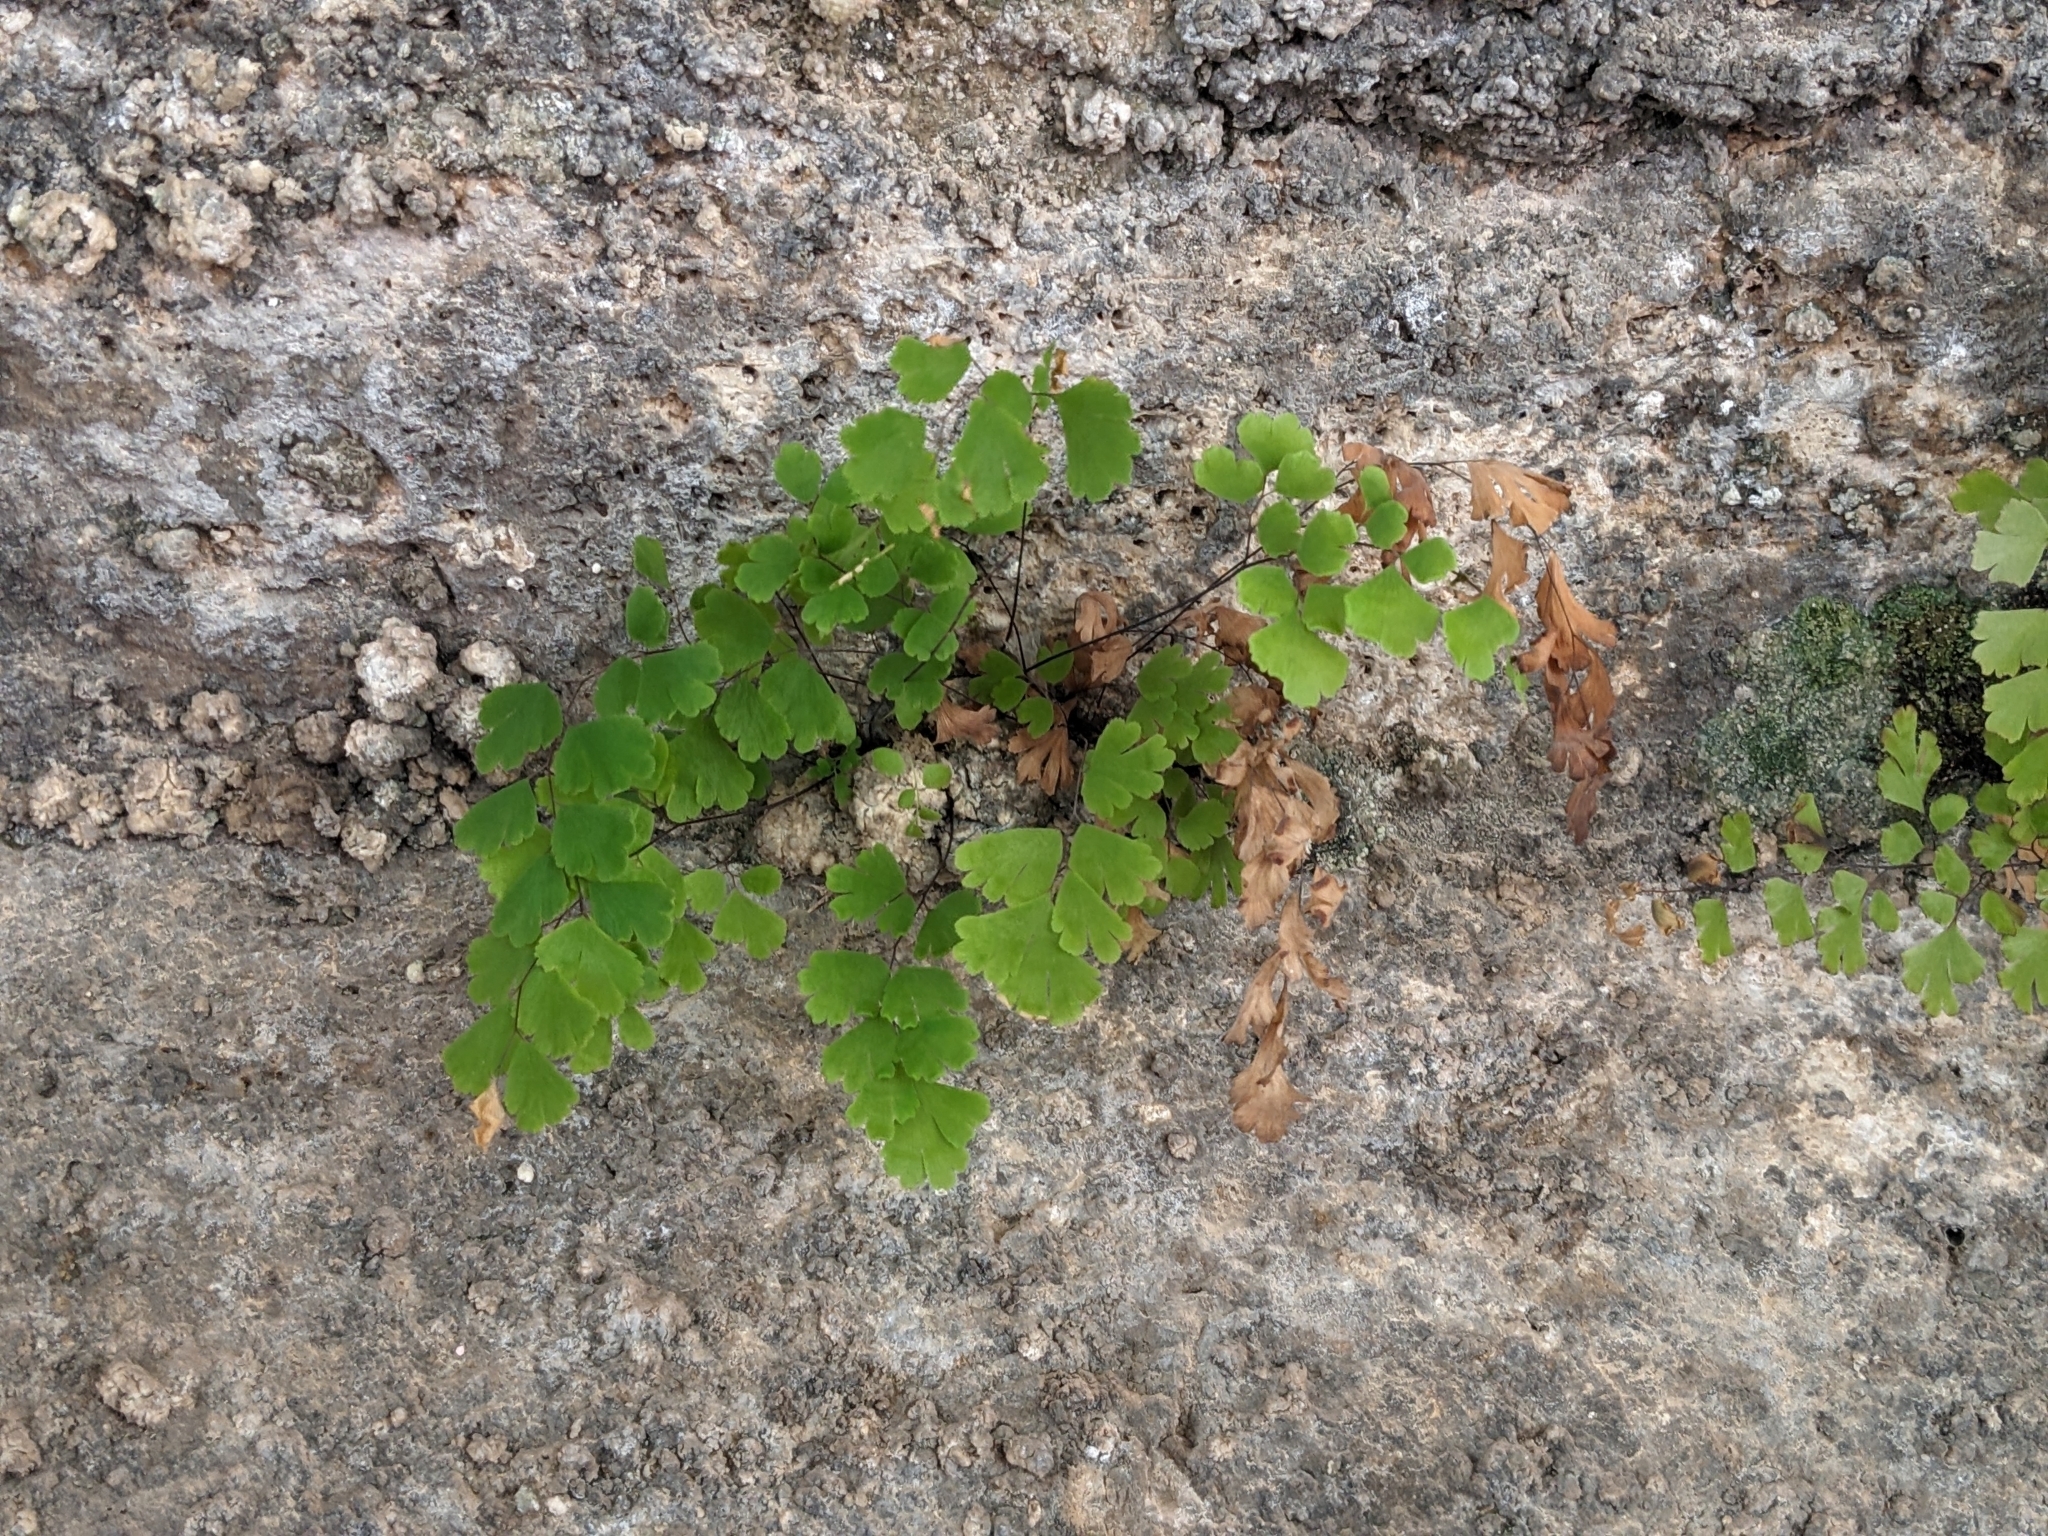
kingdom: Plantae
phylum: Tracheophyta
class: Polypodiopsida
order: Polypodiales
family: Pteridaceae
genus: Adiantum
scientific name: Adiantum capillus-veneris
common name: Maidenhair fern
